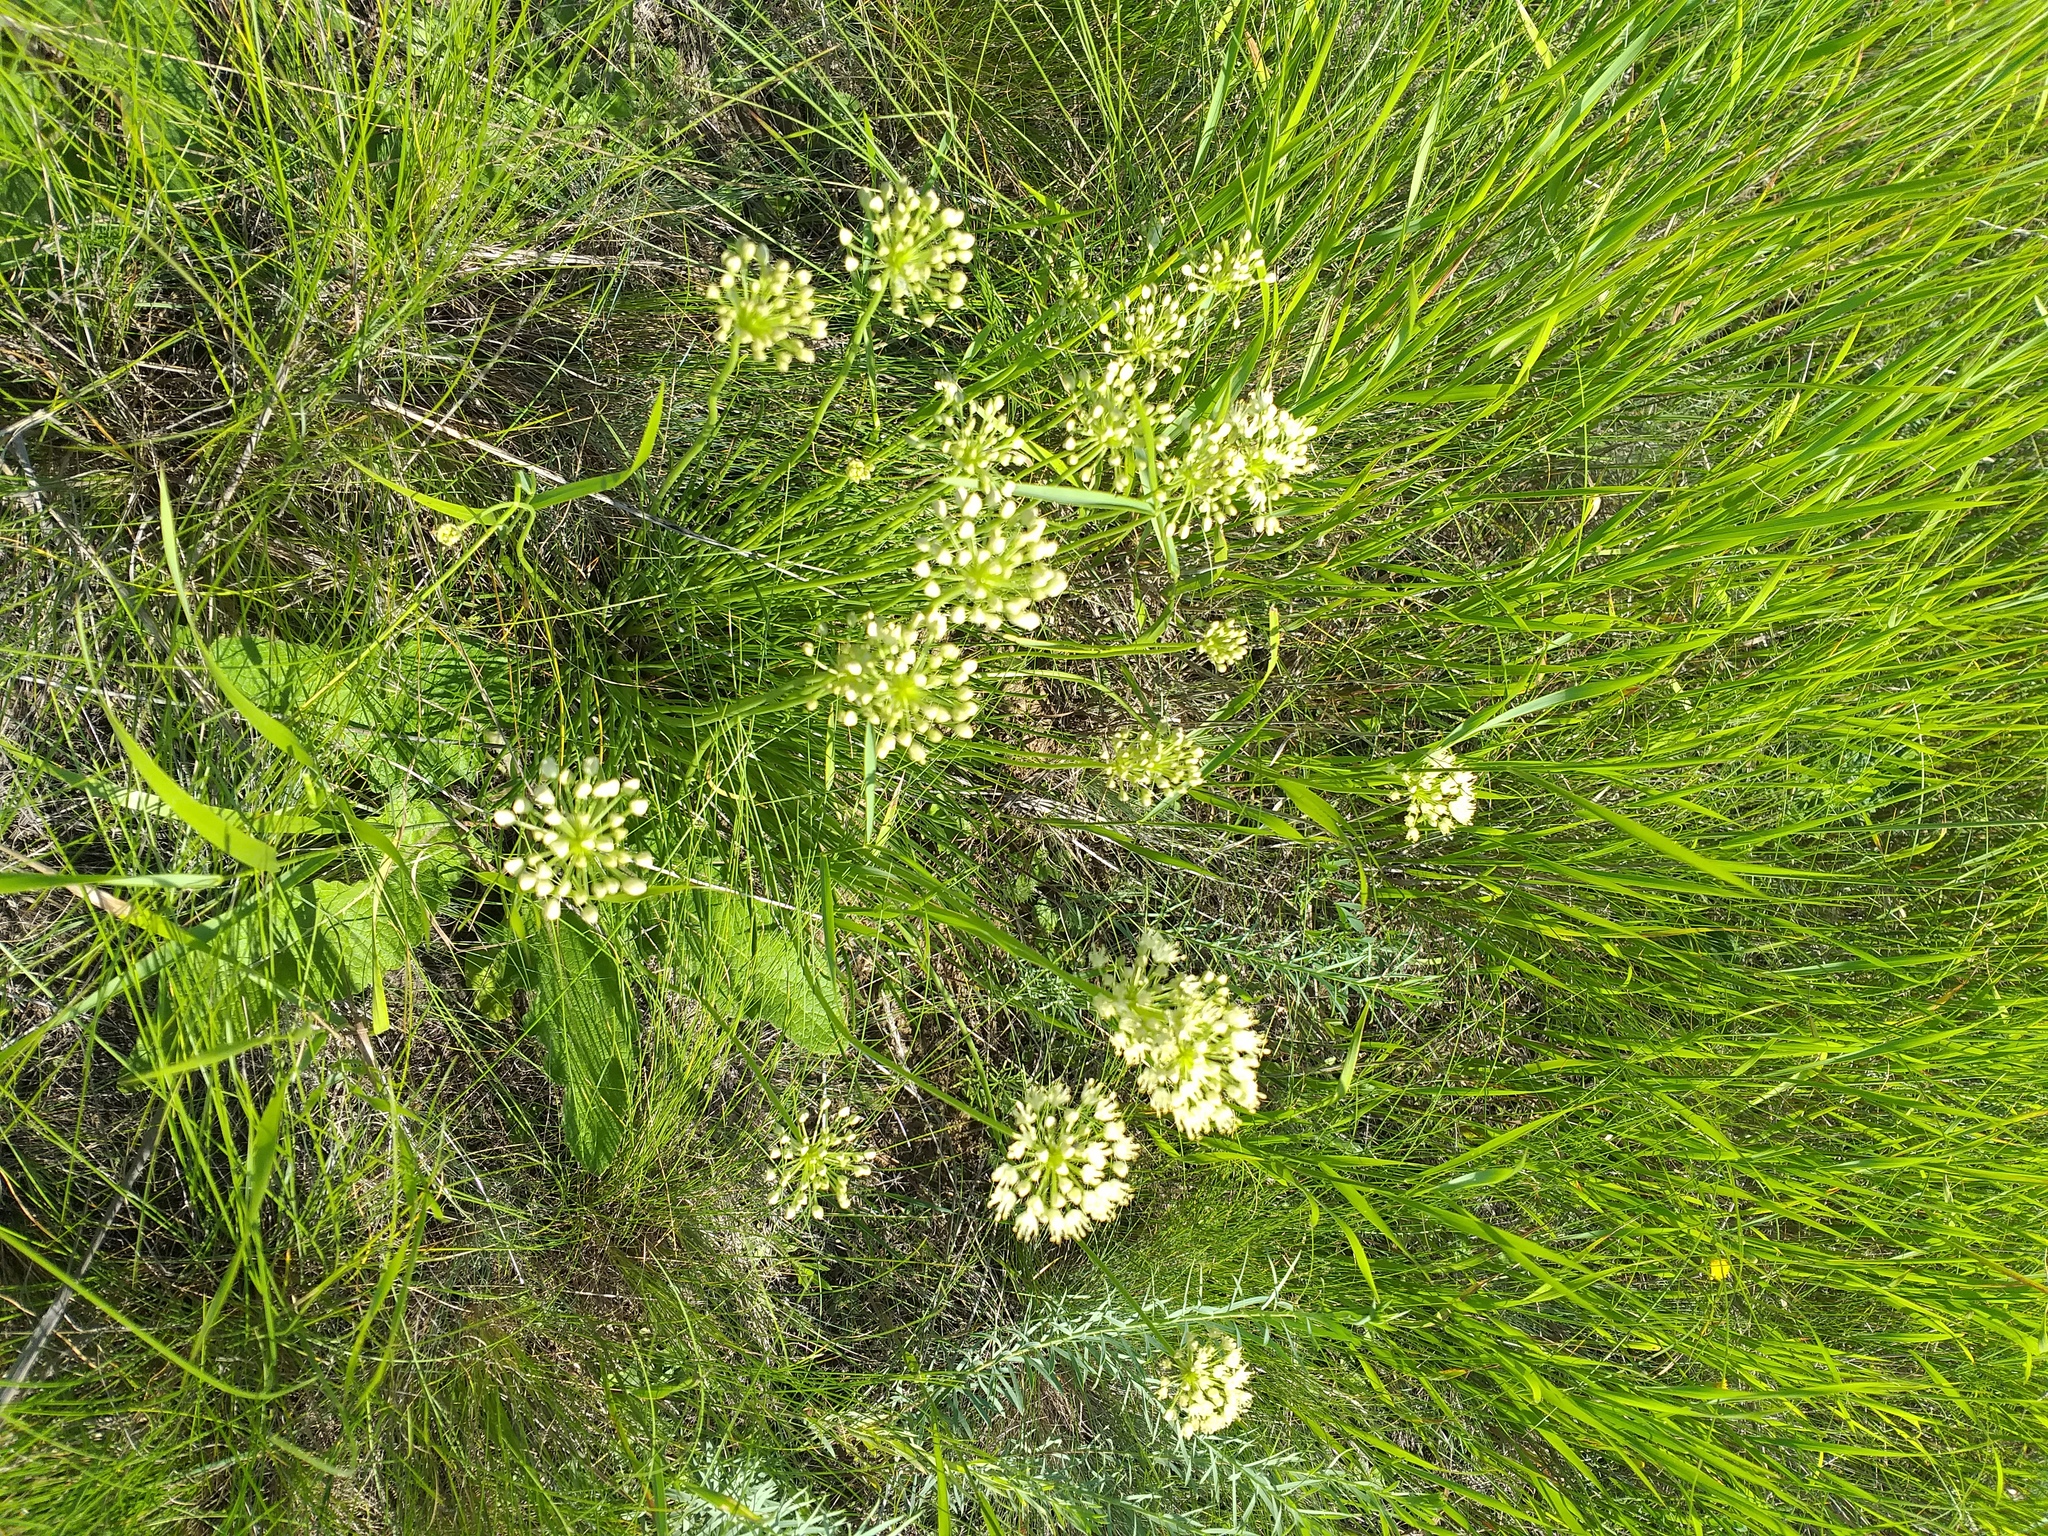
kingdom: Plantae
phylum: Tracheophyta
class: Liliopsida
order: Asparagales
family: Amaryllidaceae
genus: Allium
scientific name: Allium flavescens
